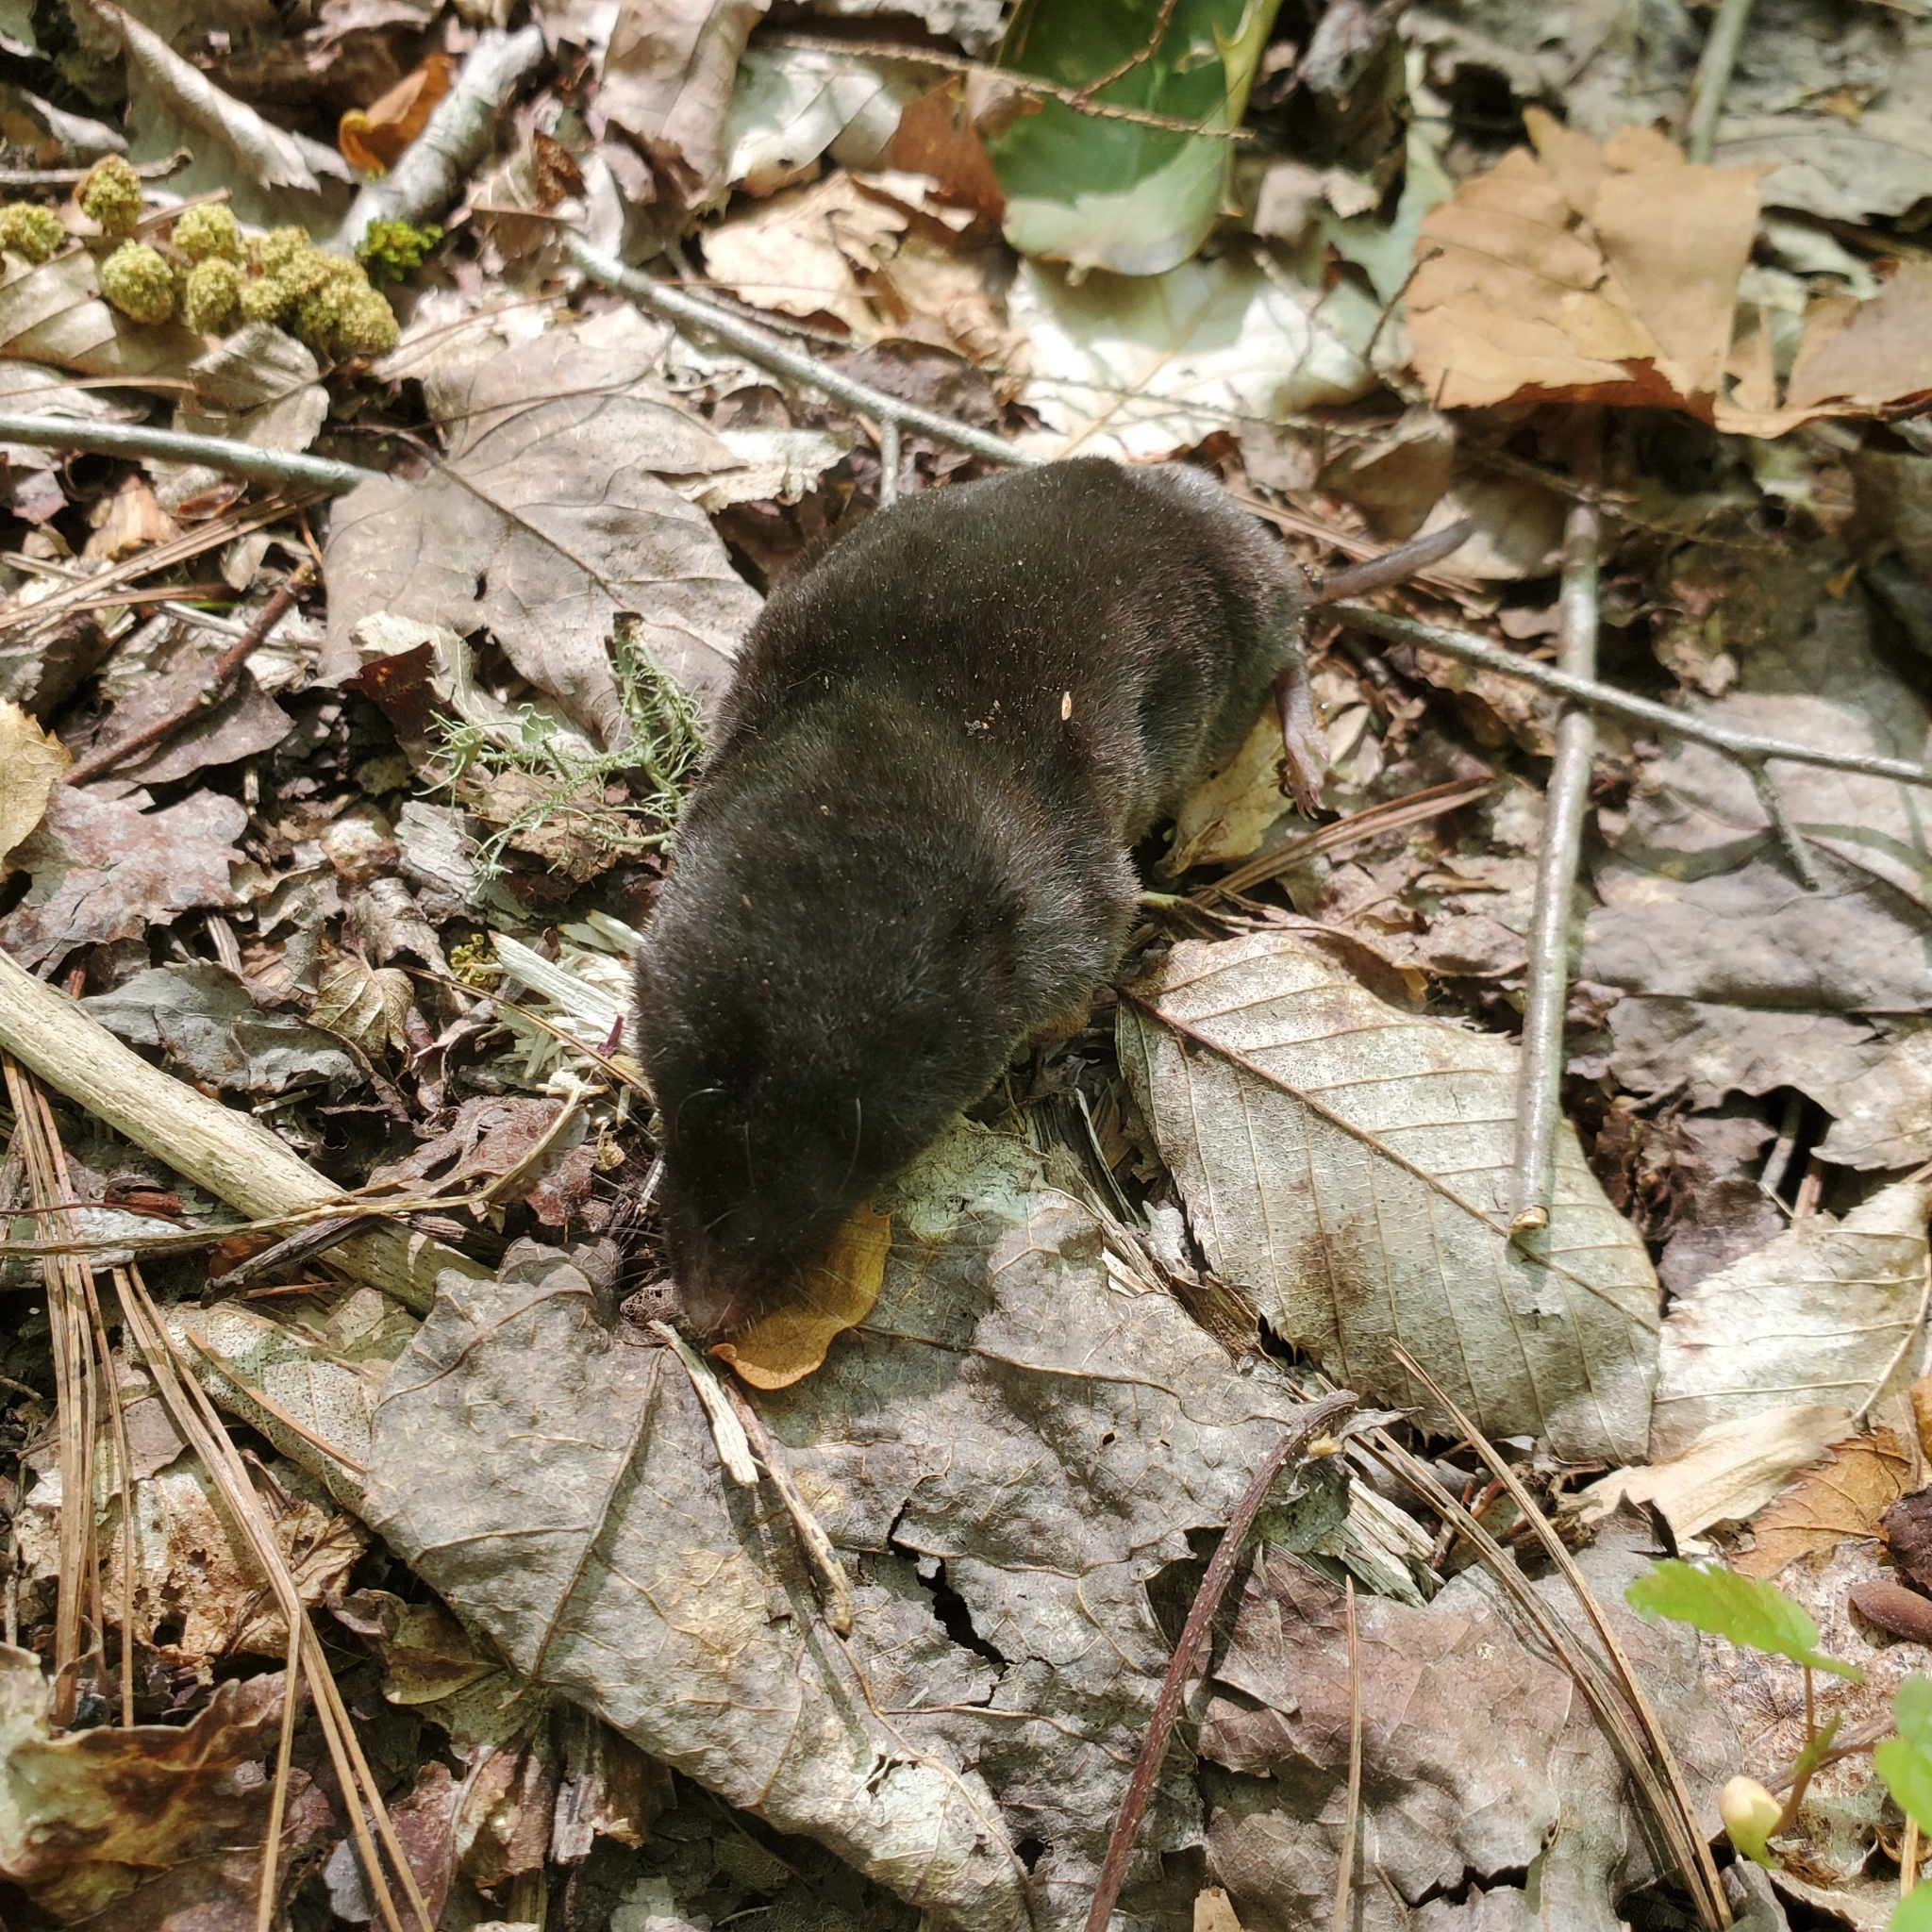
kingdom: Animalia
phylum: Chordata
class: Mammalia
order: Soricomorpha
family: Soricidae
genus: Blarina
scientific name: Blarina brevicauda
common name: Northern short-tailed shrew
